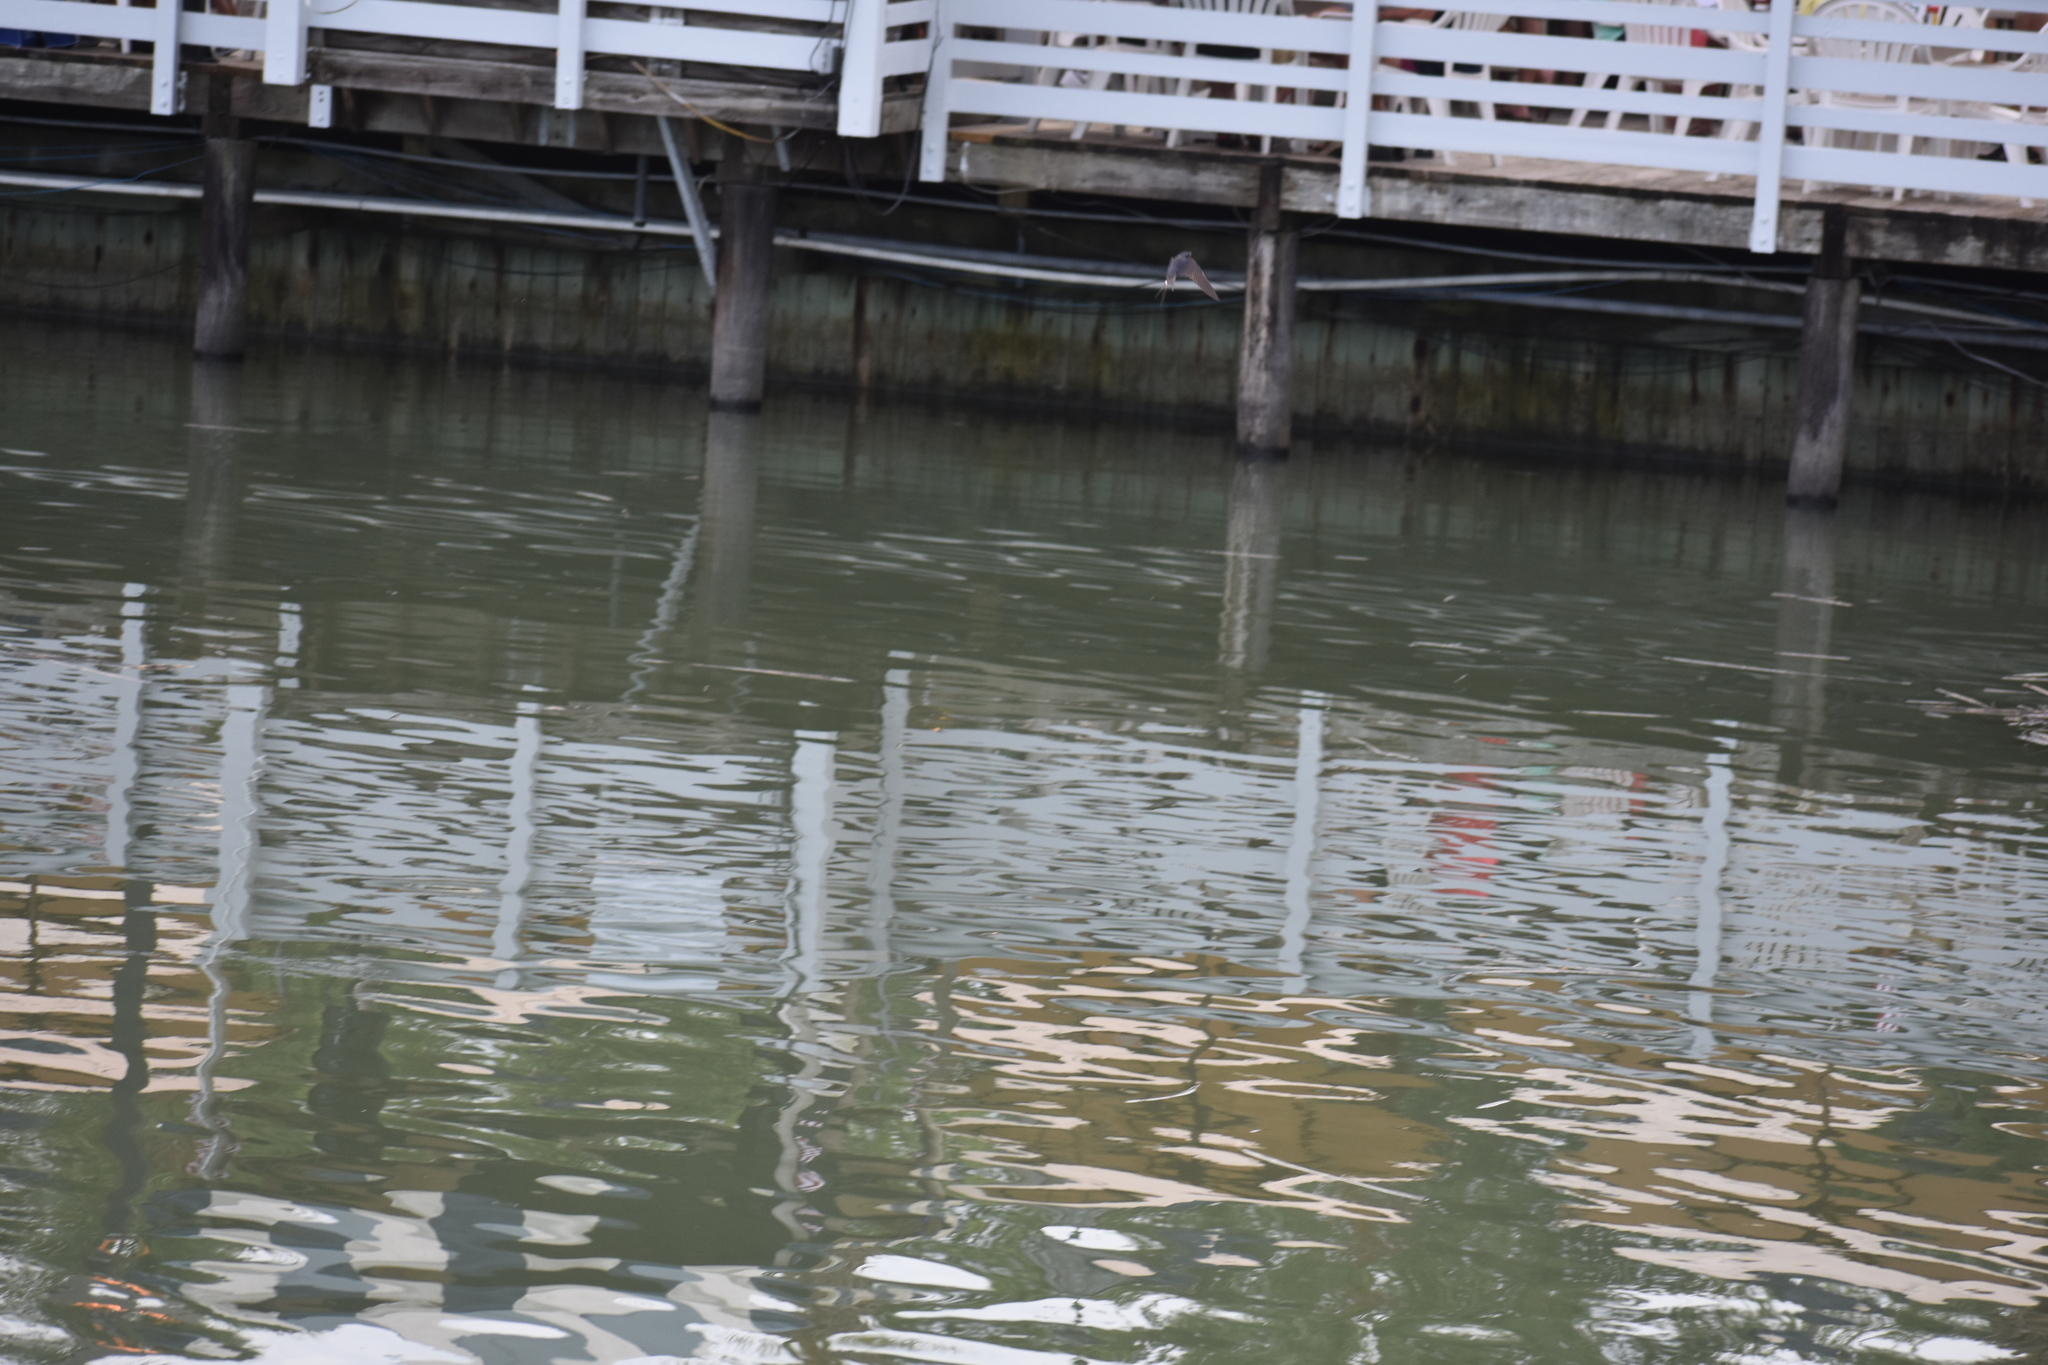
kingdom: Animalia
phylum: Chordata
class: Aves
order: Passeriformes
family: Hirundinidae
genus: Hirundo
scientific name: Hirundo rustica
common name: Barn swallow
